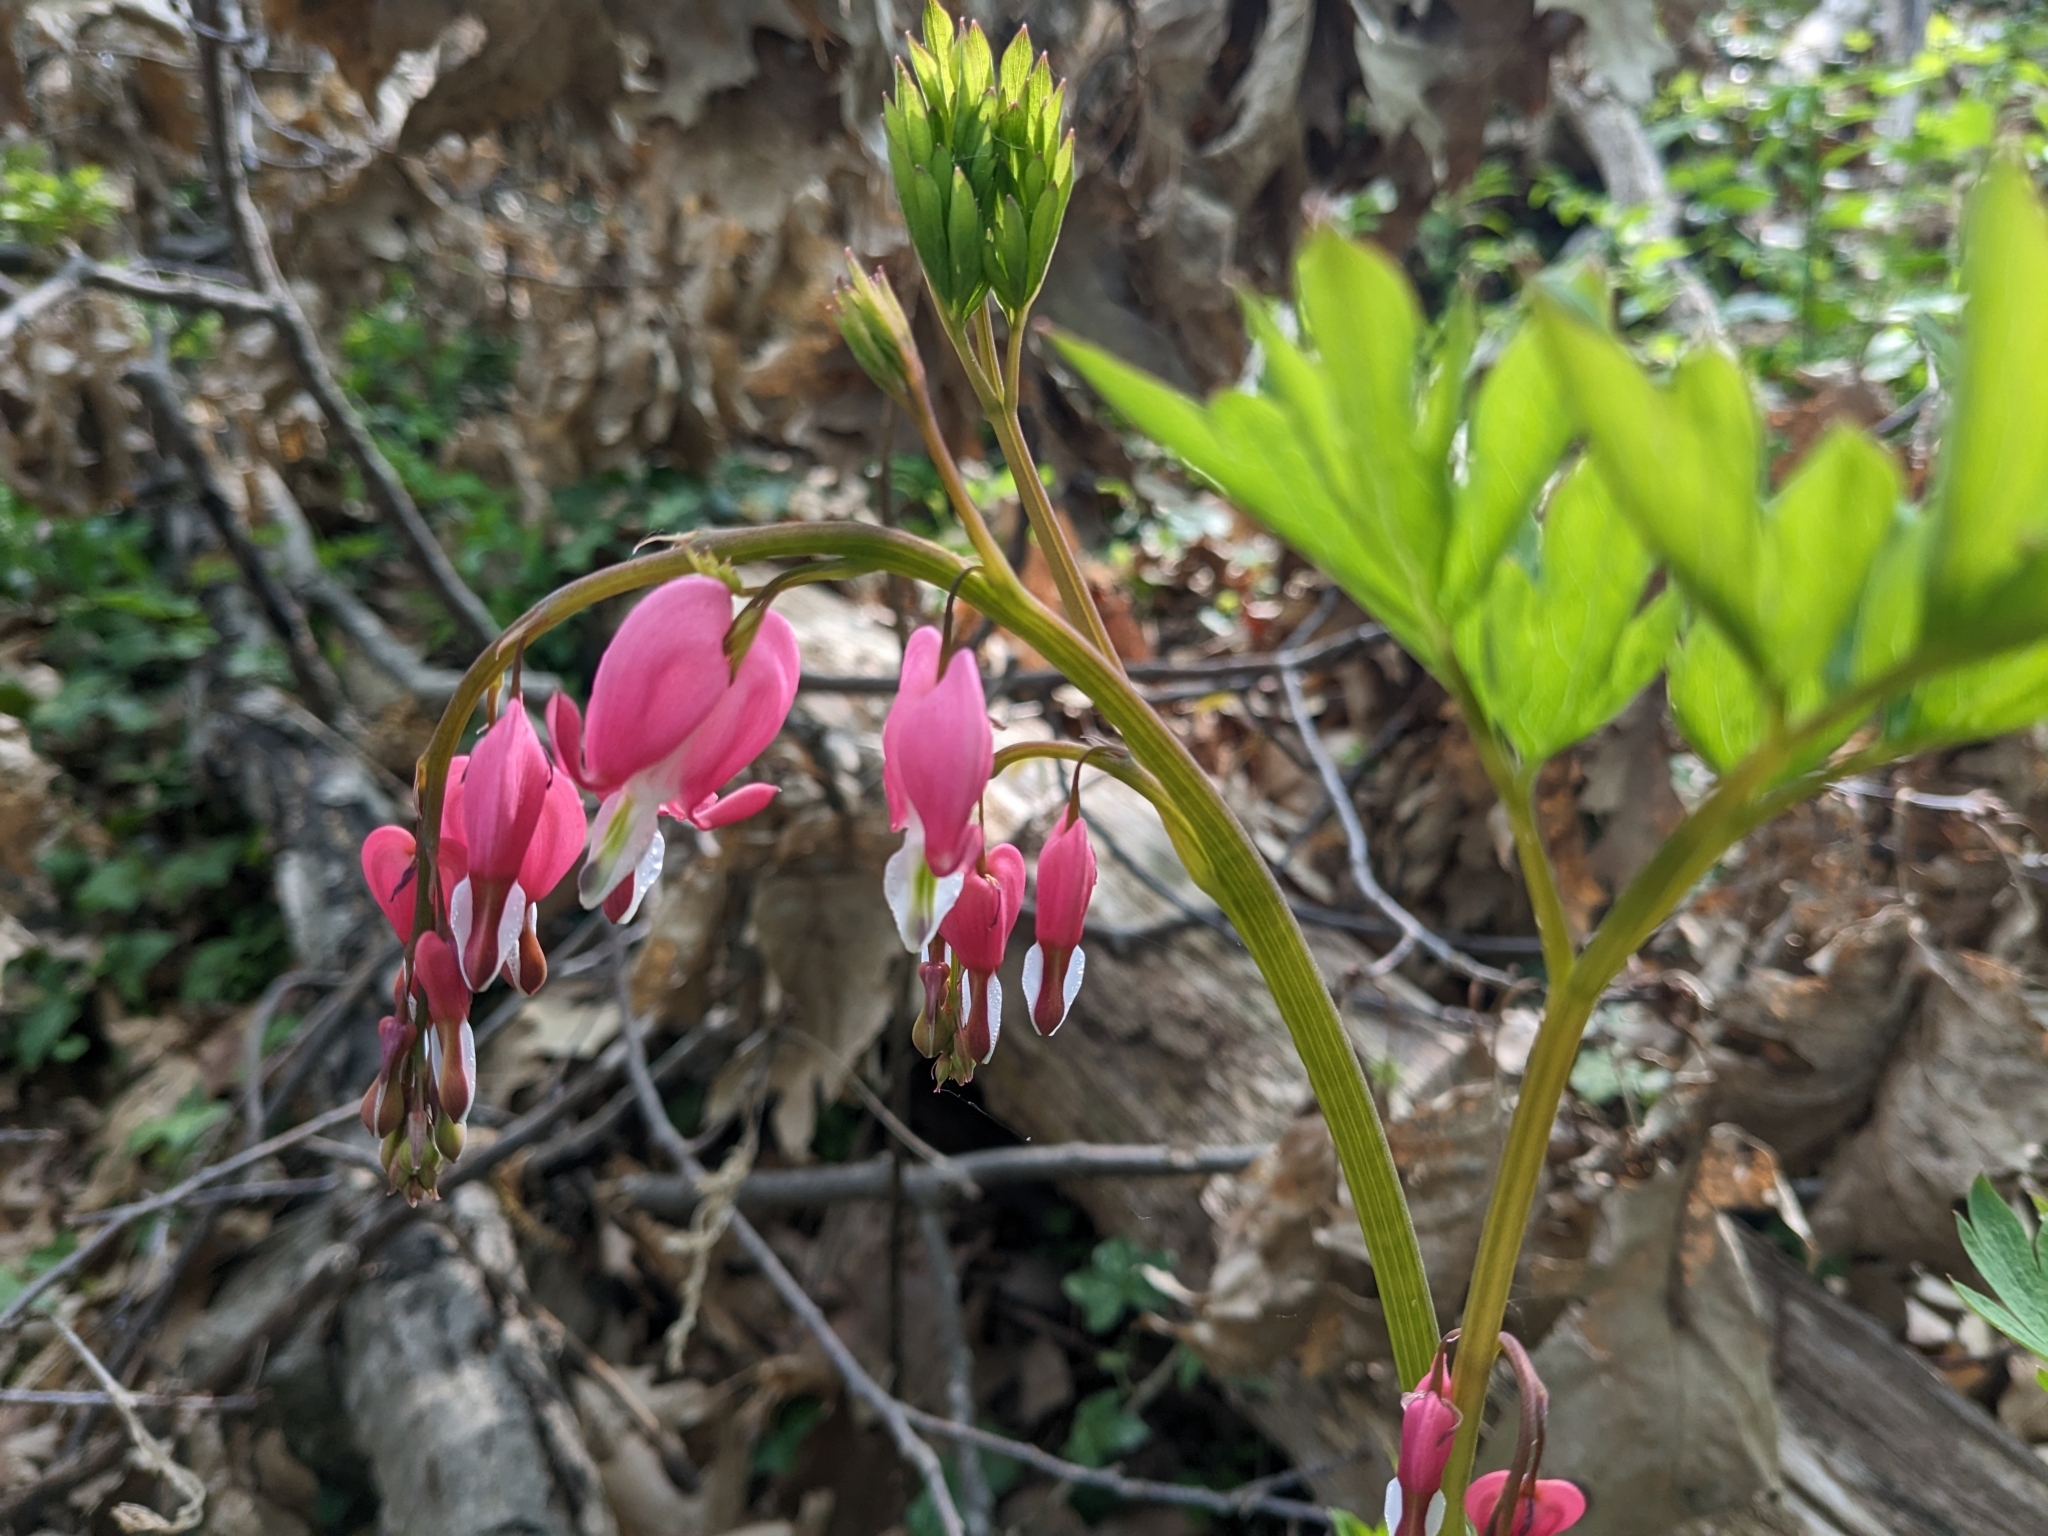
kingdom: Plantae
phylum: Tracheophyta
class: Magnoliopsida
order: Ranunculales
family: Papaveraceae
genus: Lamprocapnos
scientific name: Lamprocapnos spectabilis
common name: Asian bleeding-heart
